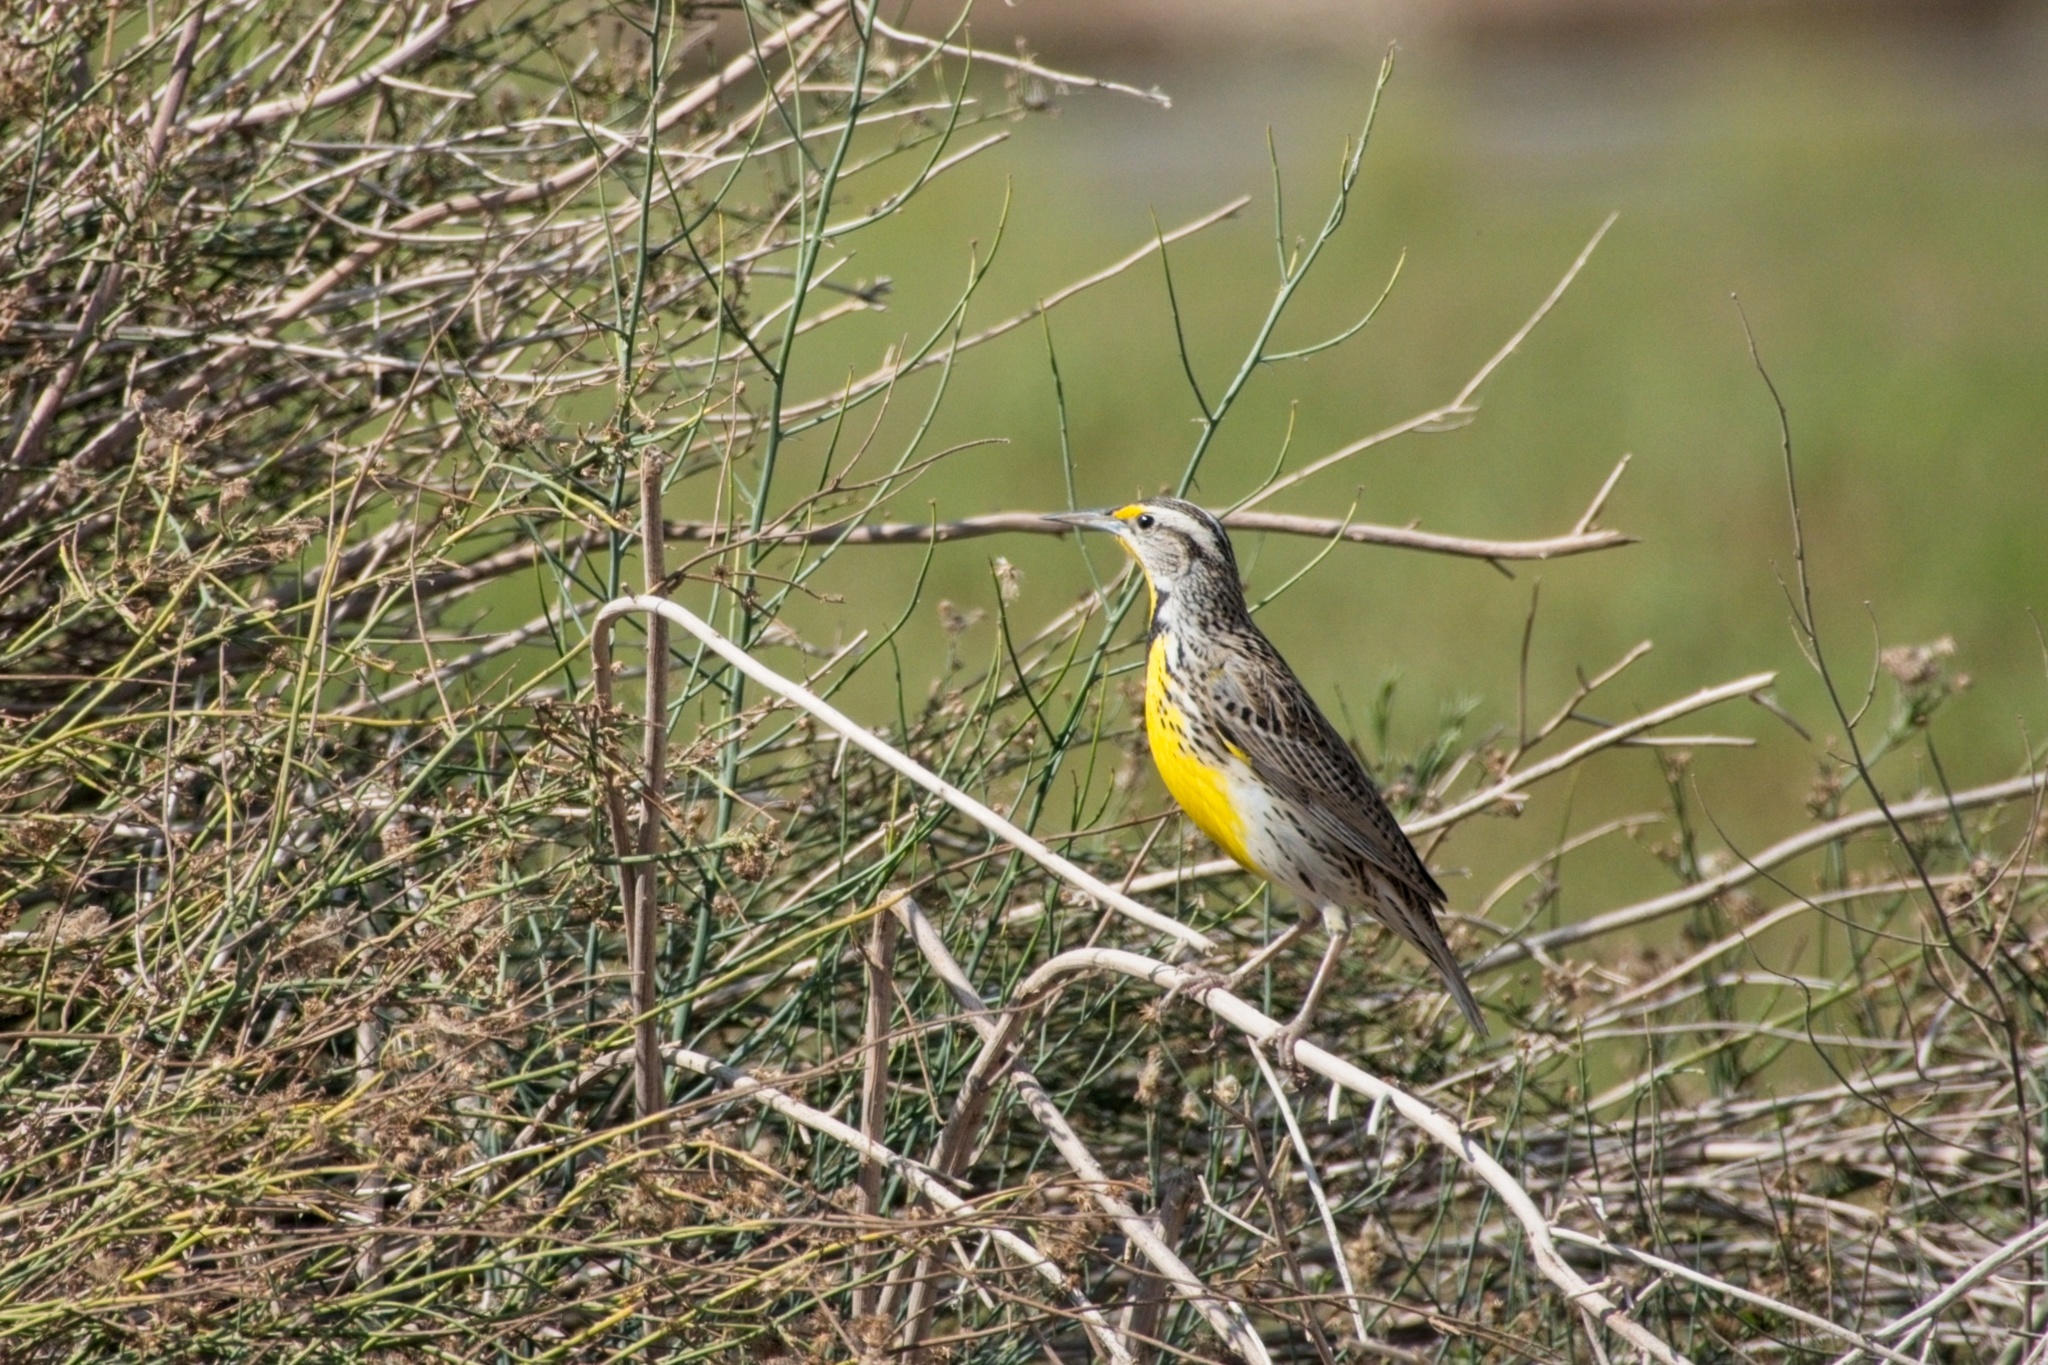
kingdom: Animalia
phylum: Chordata
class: Aves
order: Passeriformes
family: Icteridae
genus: Sturnella
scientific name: Sturnella neglecta
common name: Western meadowlark
